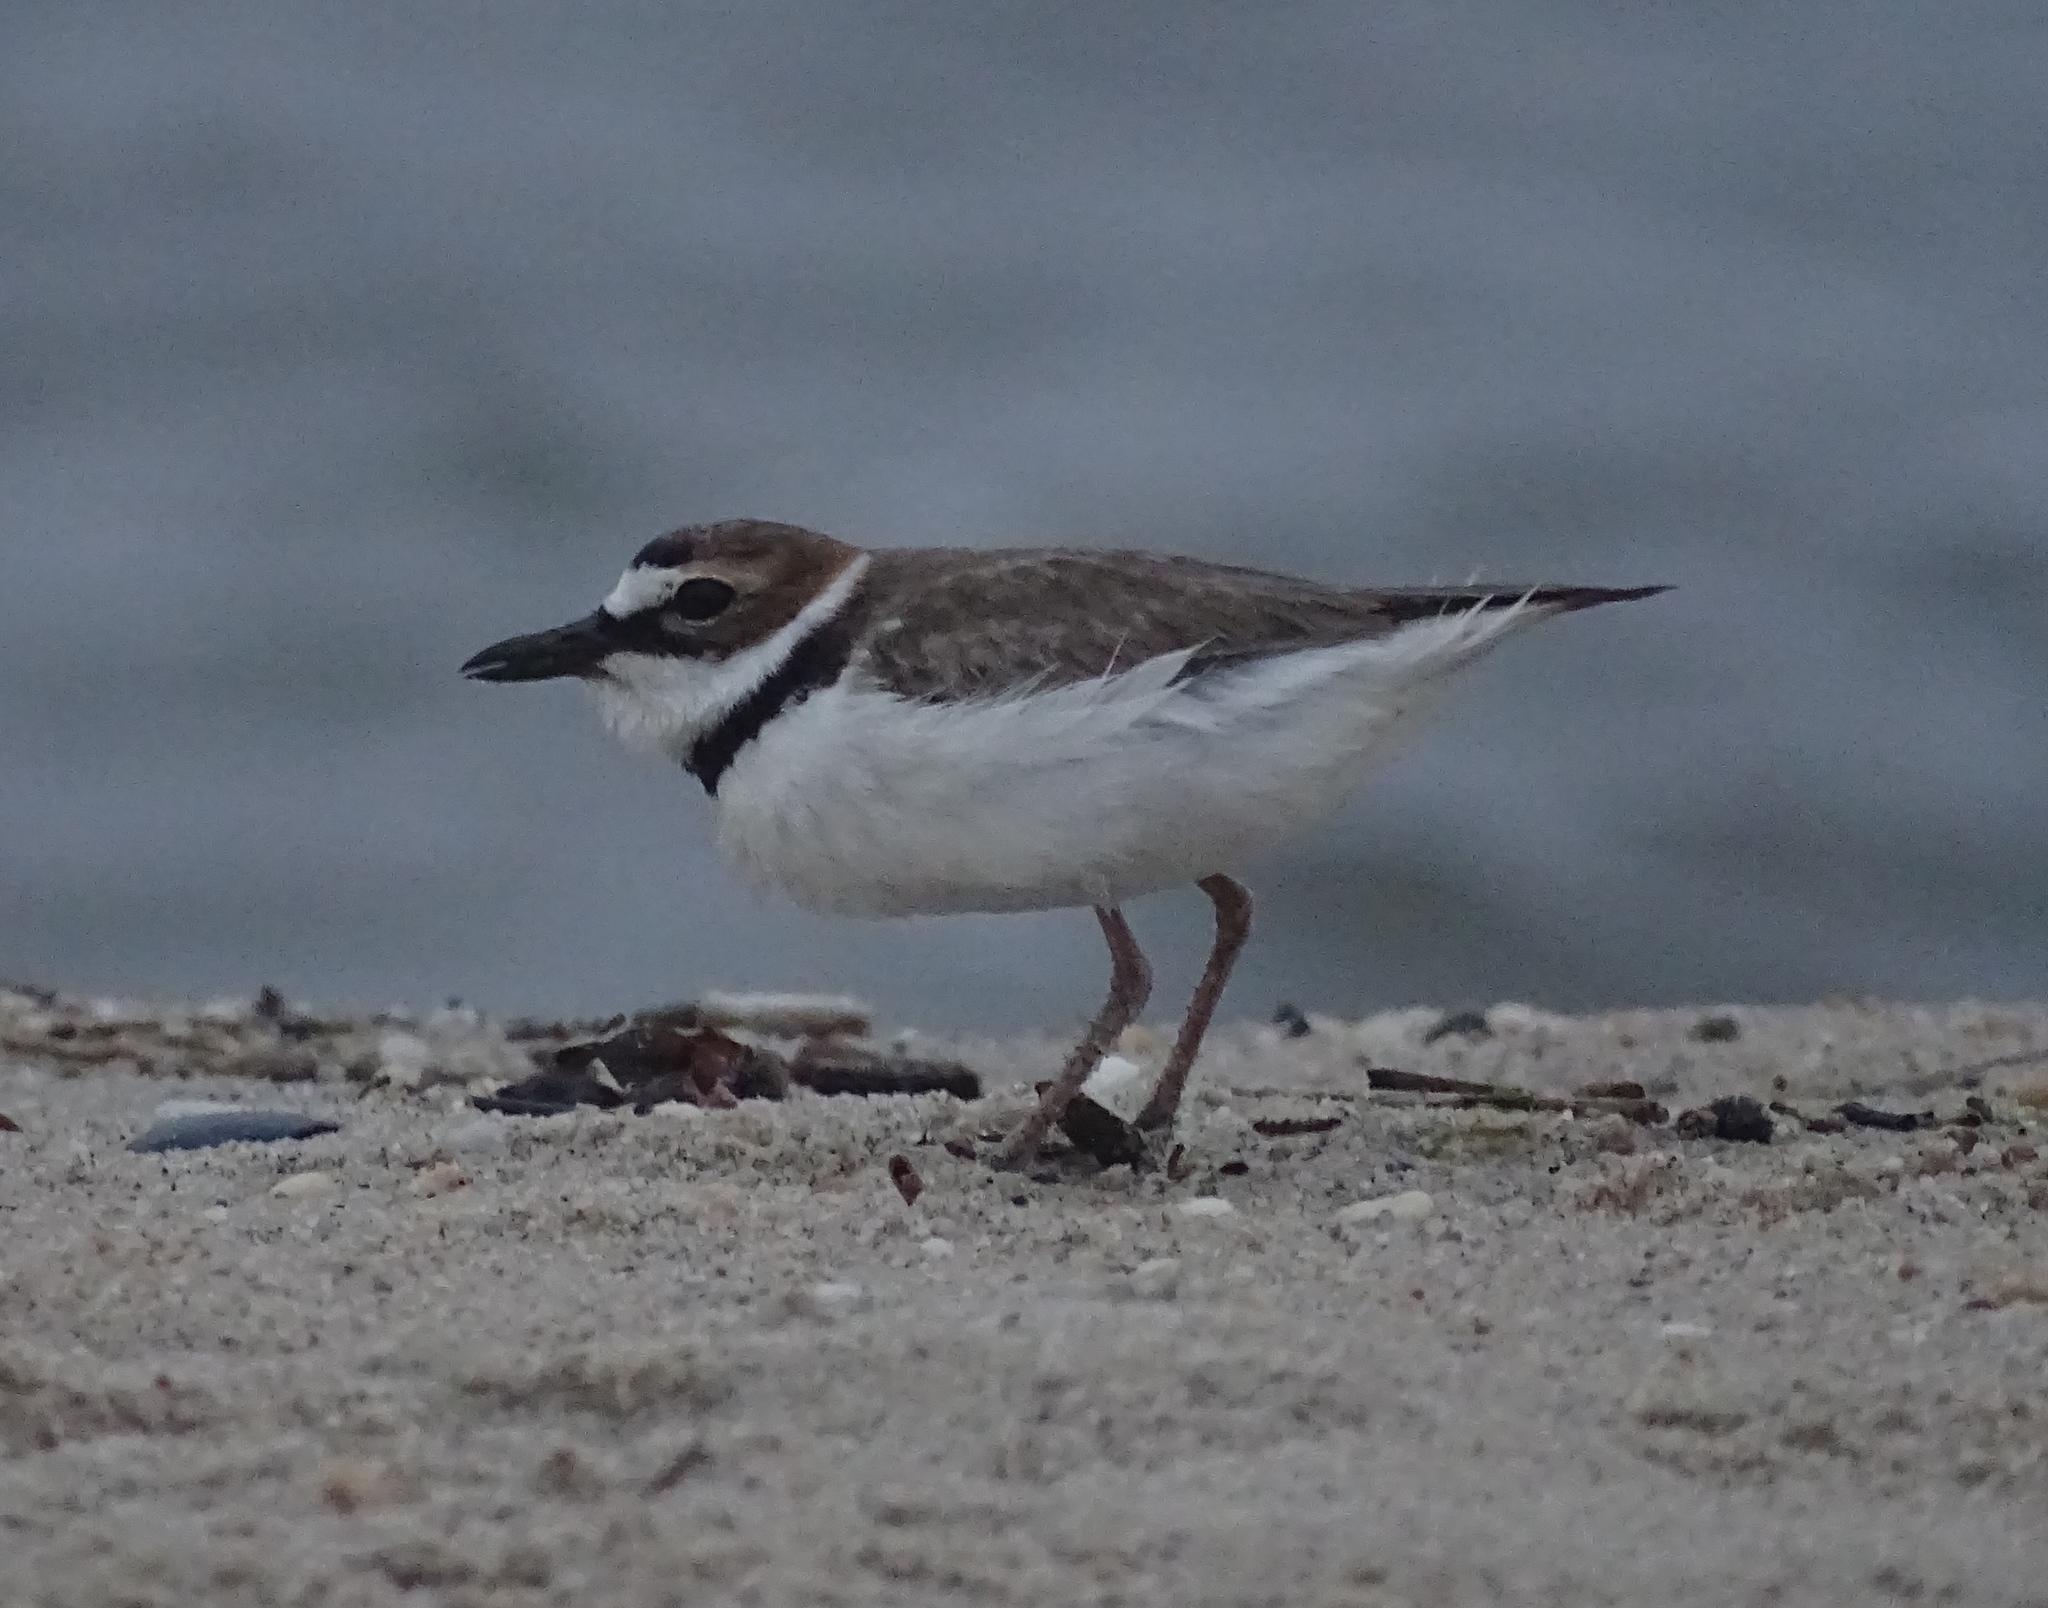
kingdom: Animalia
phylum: Chordata
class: Aves
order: Charadriiformes
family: Charadriidae
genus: Anarhynchus
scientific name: Anarhynchus
